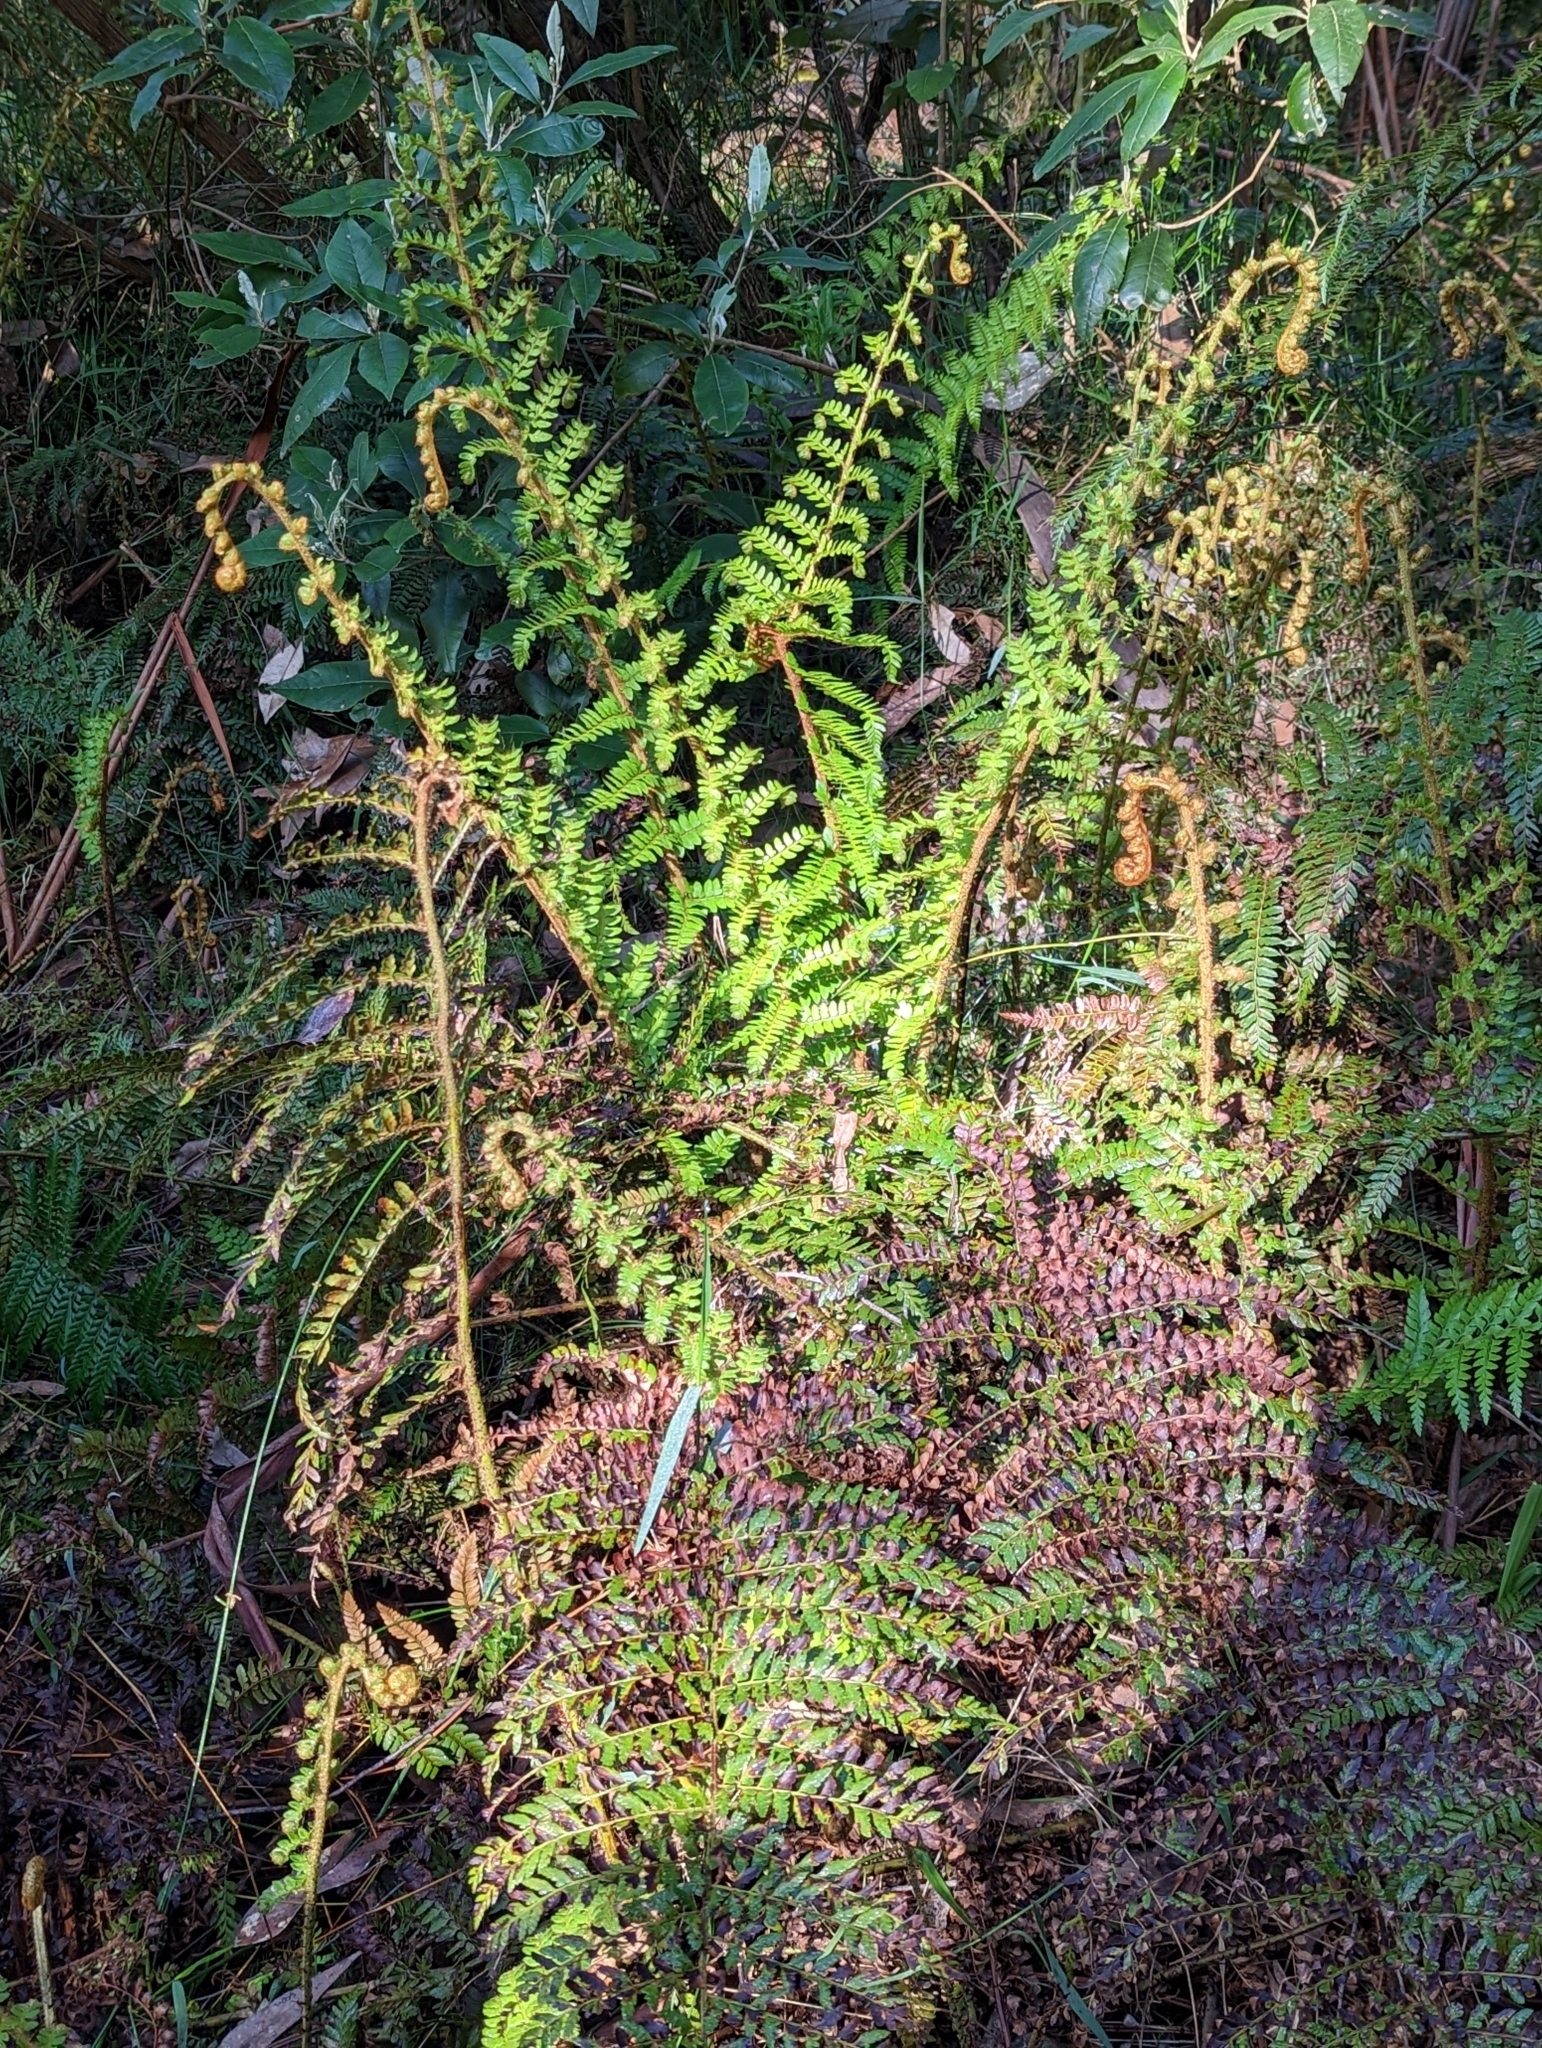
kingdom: Plantae
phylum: Tracheophyta
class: Polypodiopsida
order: Polypodiales
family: Dryopteridaceae
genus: Polystichum
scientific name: Polystichum proliferum
